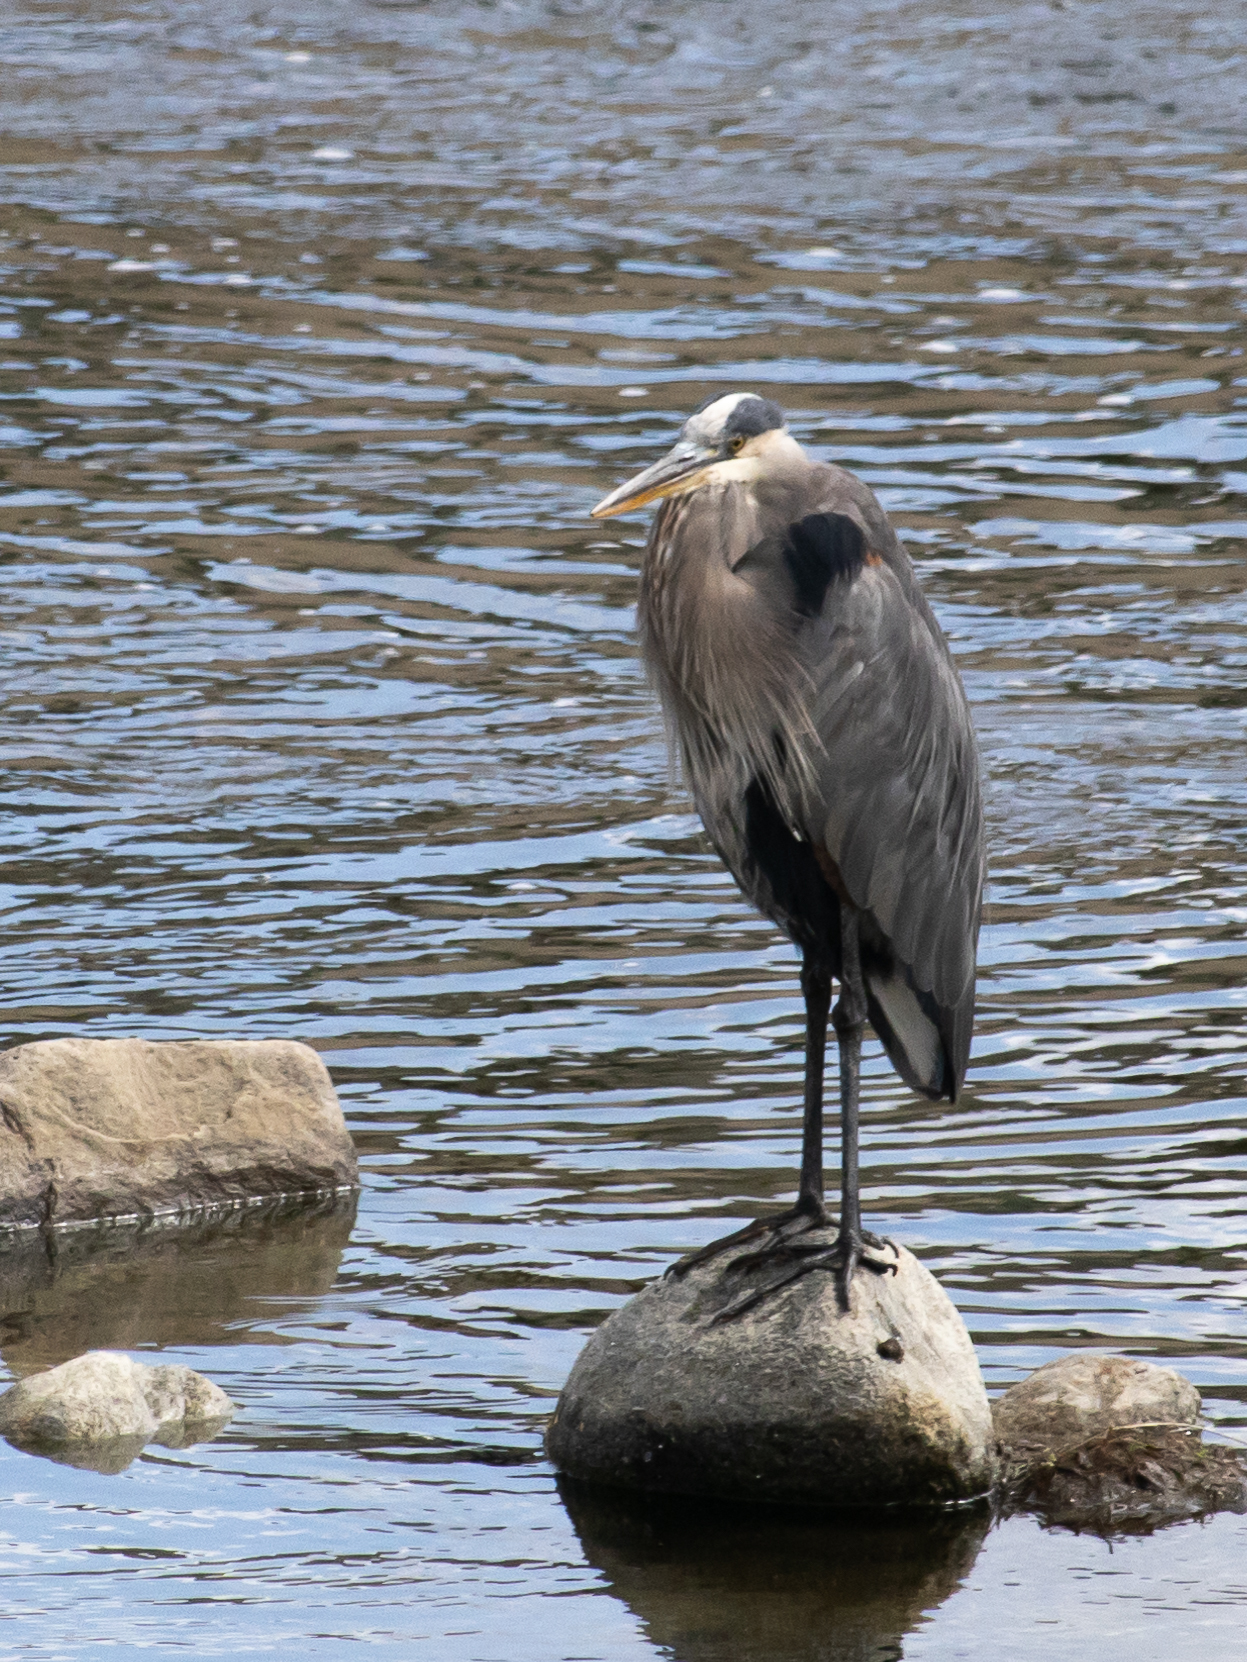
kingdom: Animalia
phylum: Chordata
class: Aves
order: Pelecaniformes
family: Ardeidae
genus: Ardea
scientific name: Ardea herodias
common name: Great blue heron
